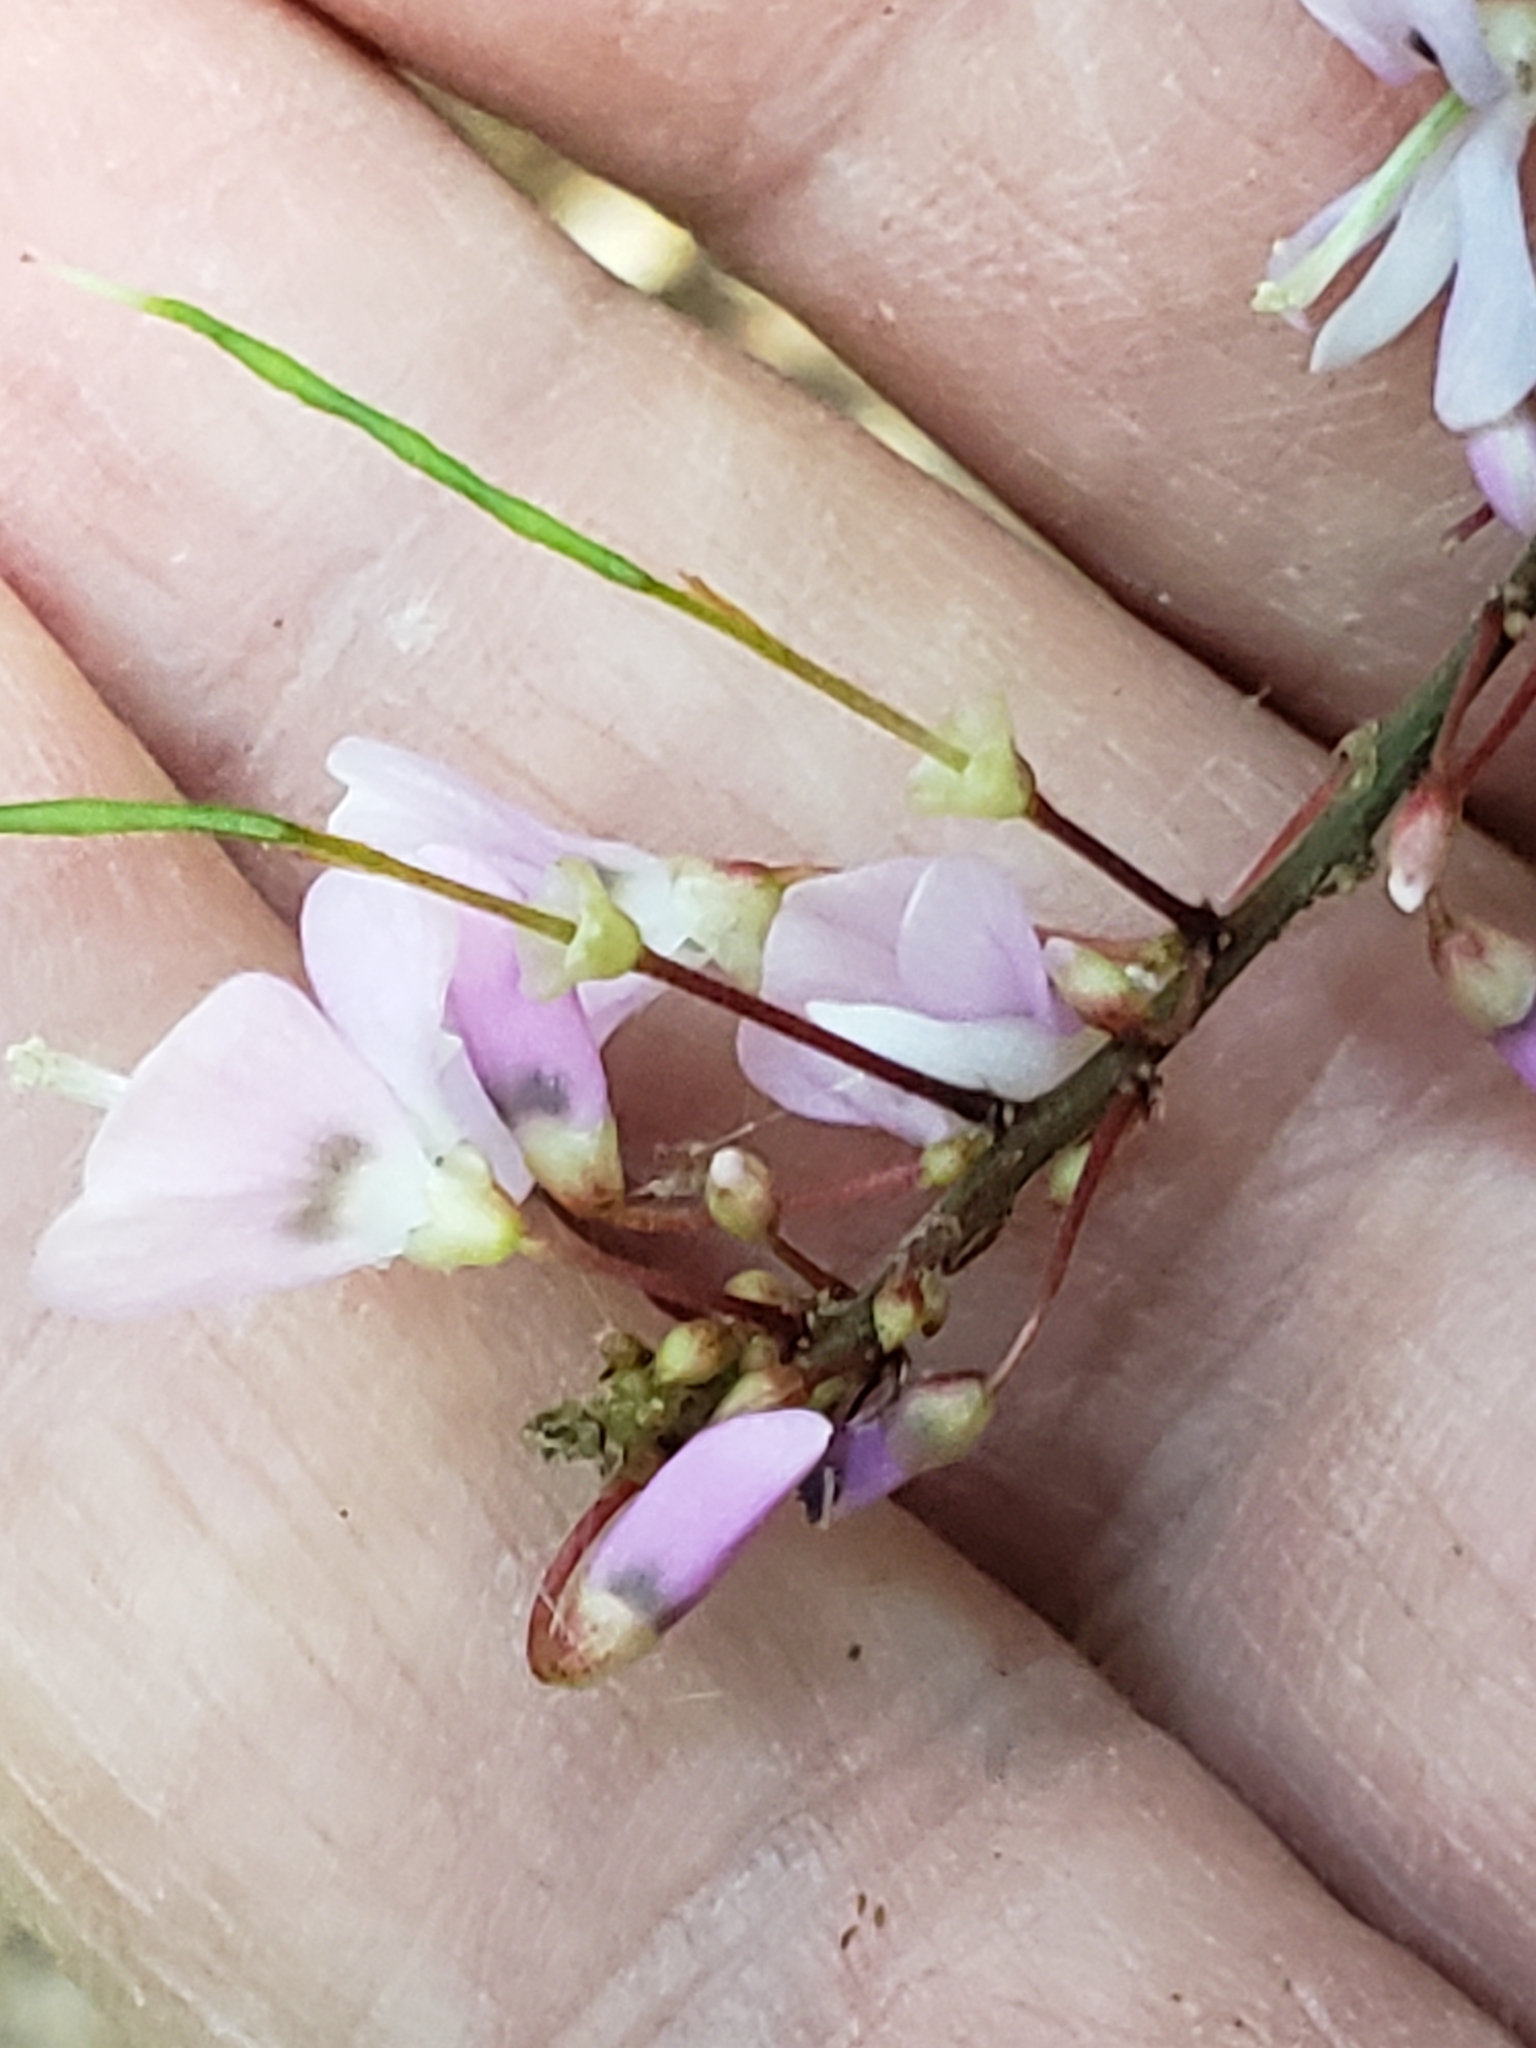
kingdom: Plantae
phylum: Tracheophyta
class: Magnoliopsida
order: Fabales
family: Fabaceae
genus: Hylodesmum
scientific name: Hylodesmum nudiflorum
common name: Bare-stemmed tick-trefoil
